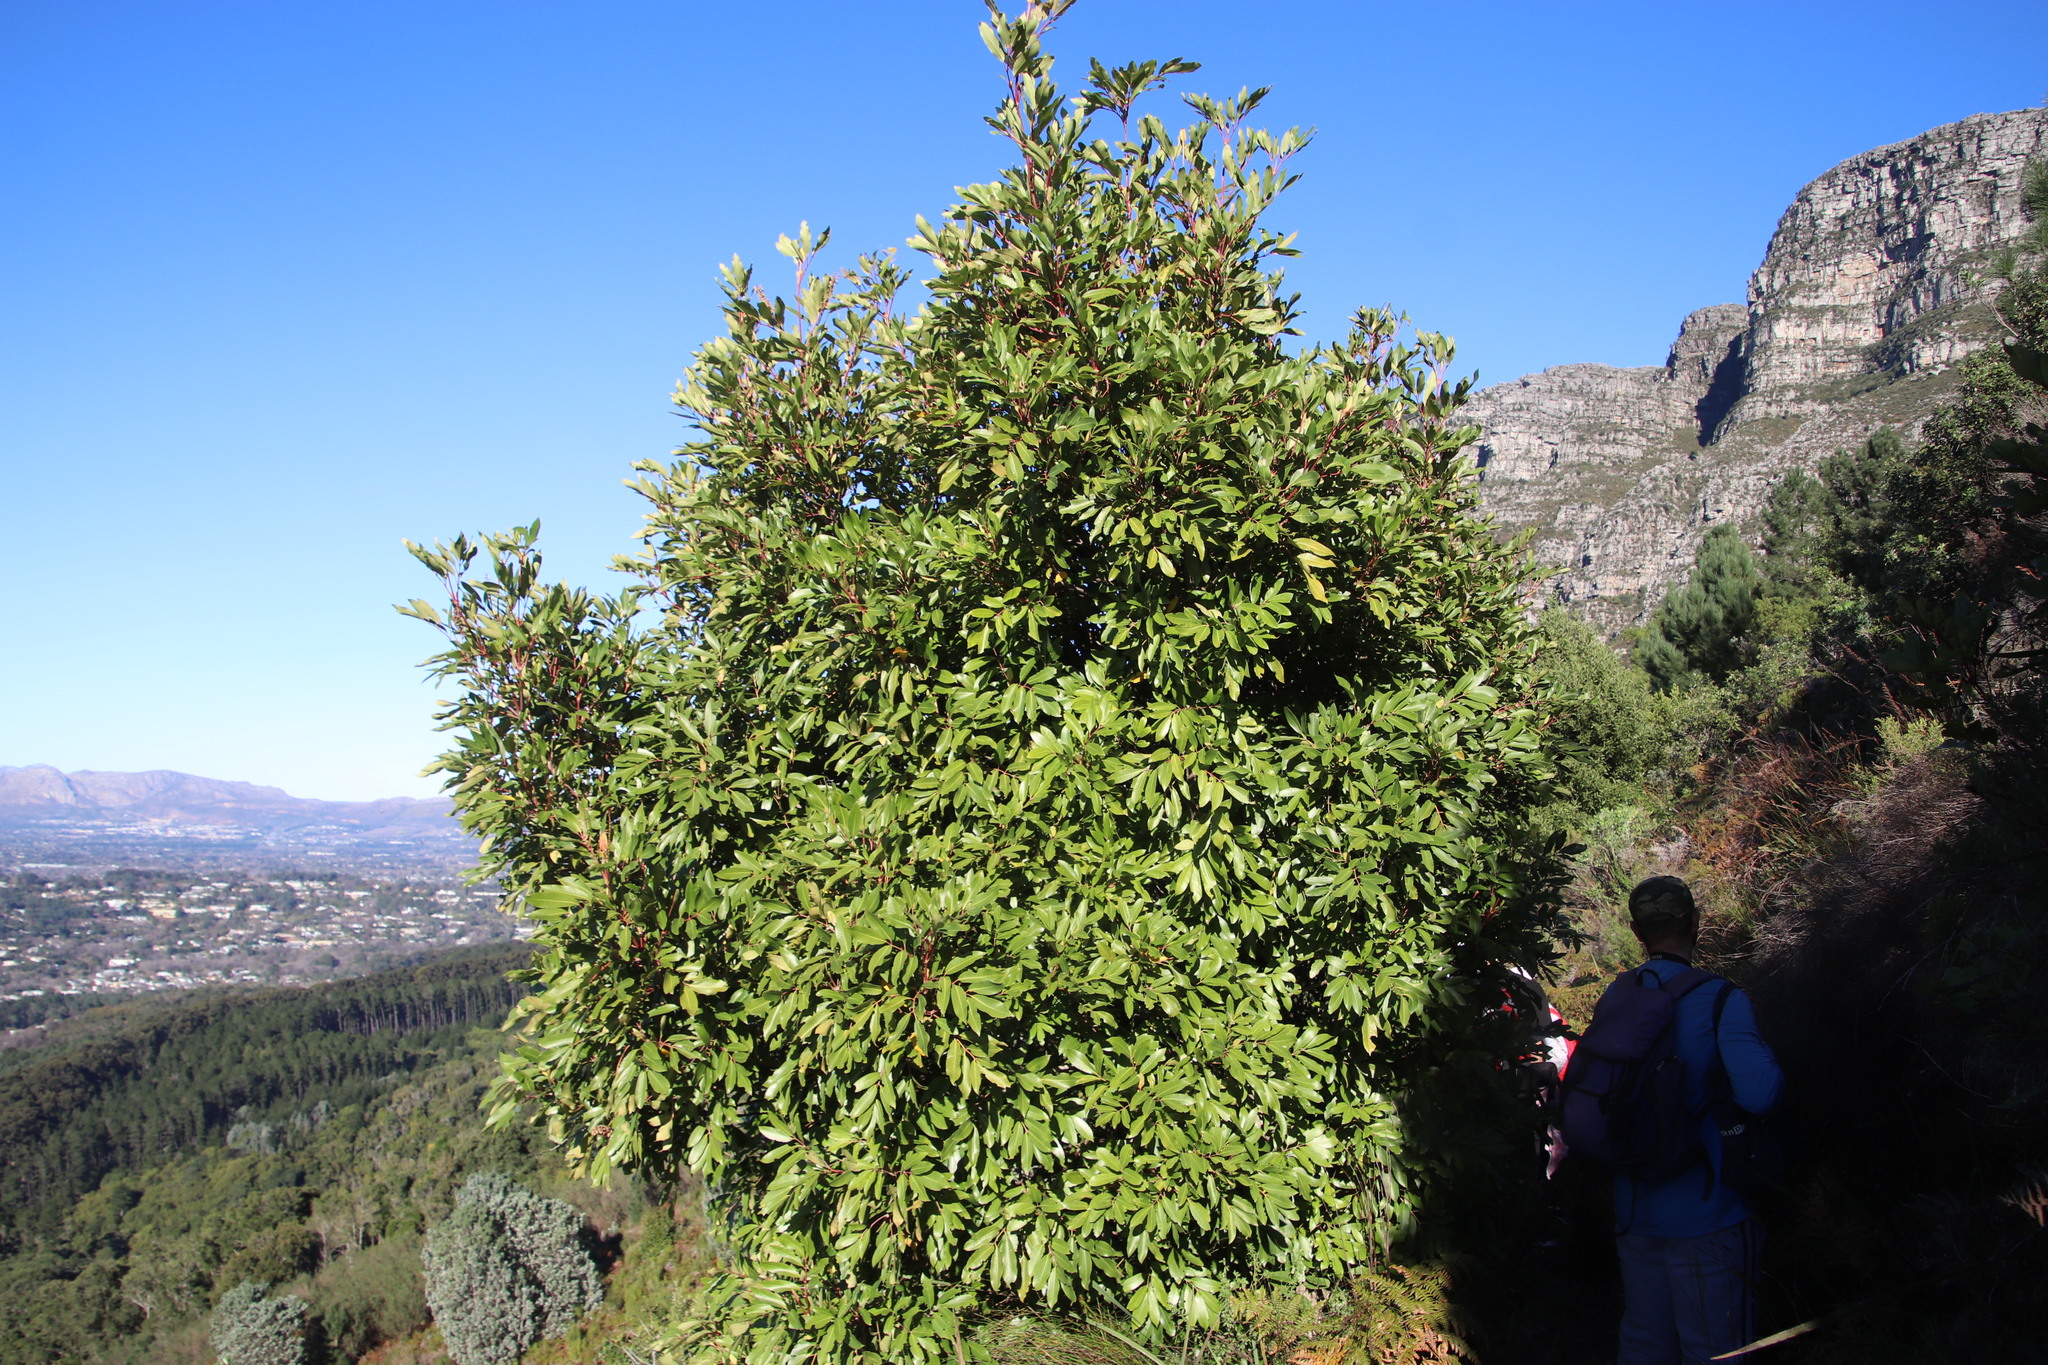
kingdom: Plantae
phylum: Tracheophyta
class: Magnoliopsida
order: Oxalidales
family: Cunoniaceae
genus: Cunonia
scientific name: Cunonia capensis
